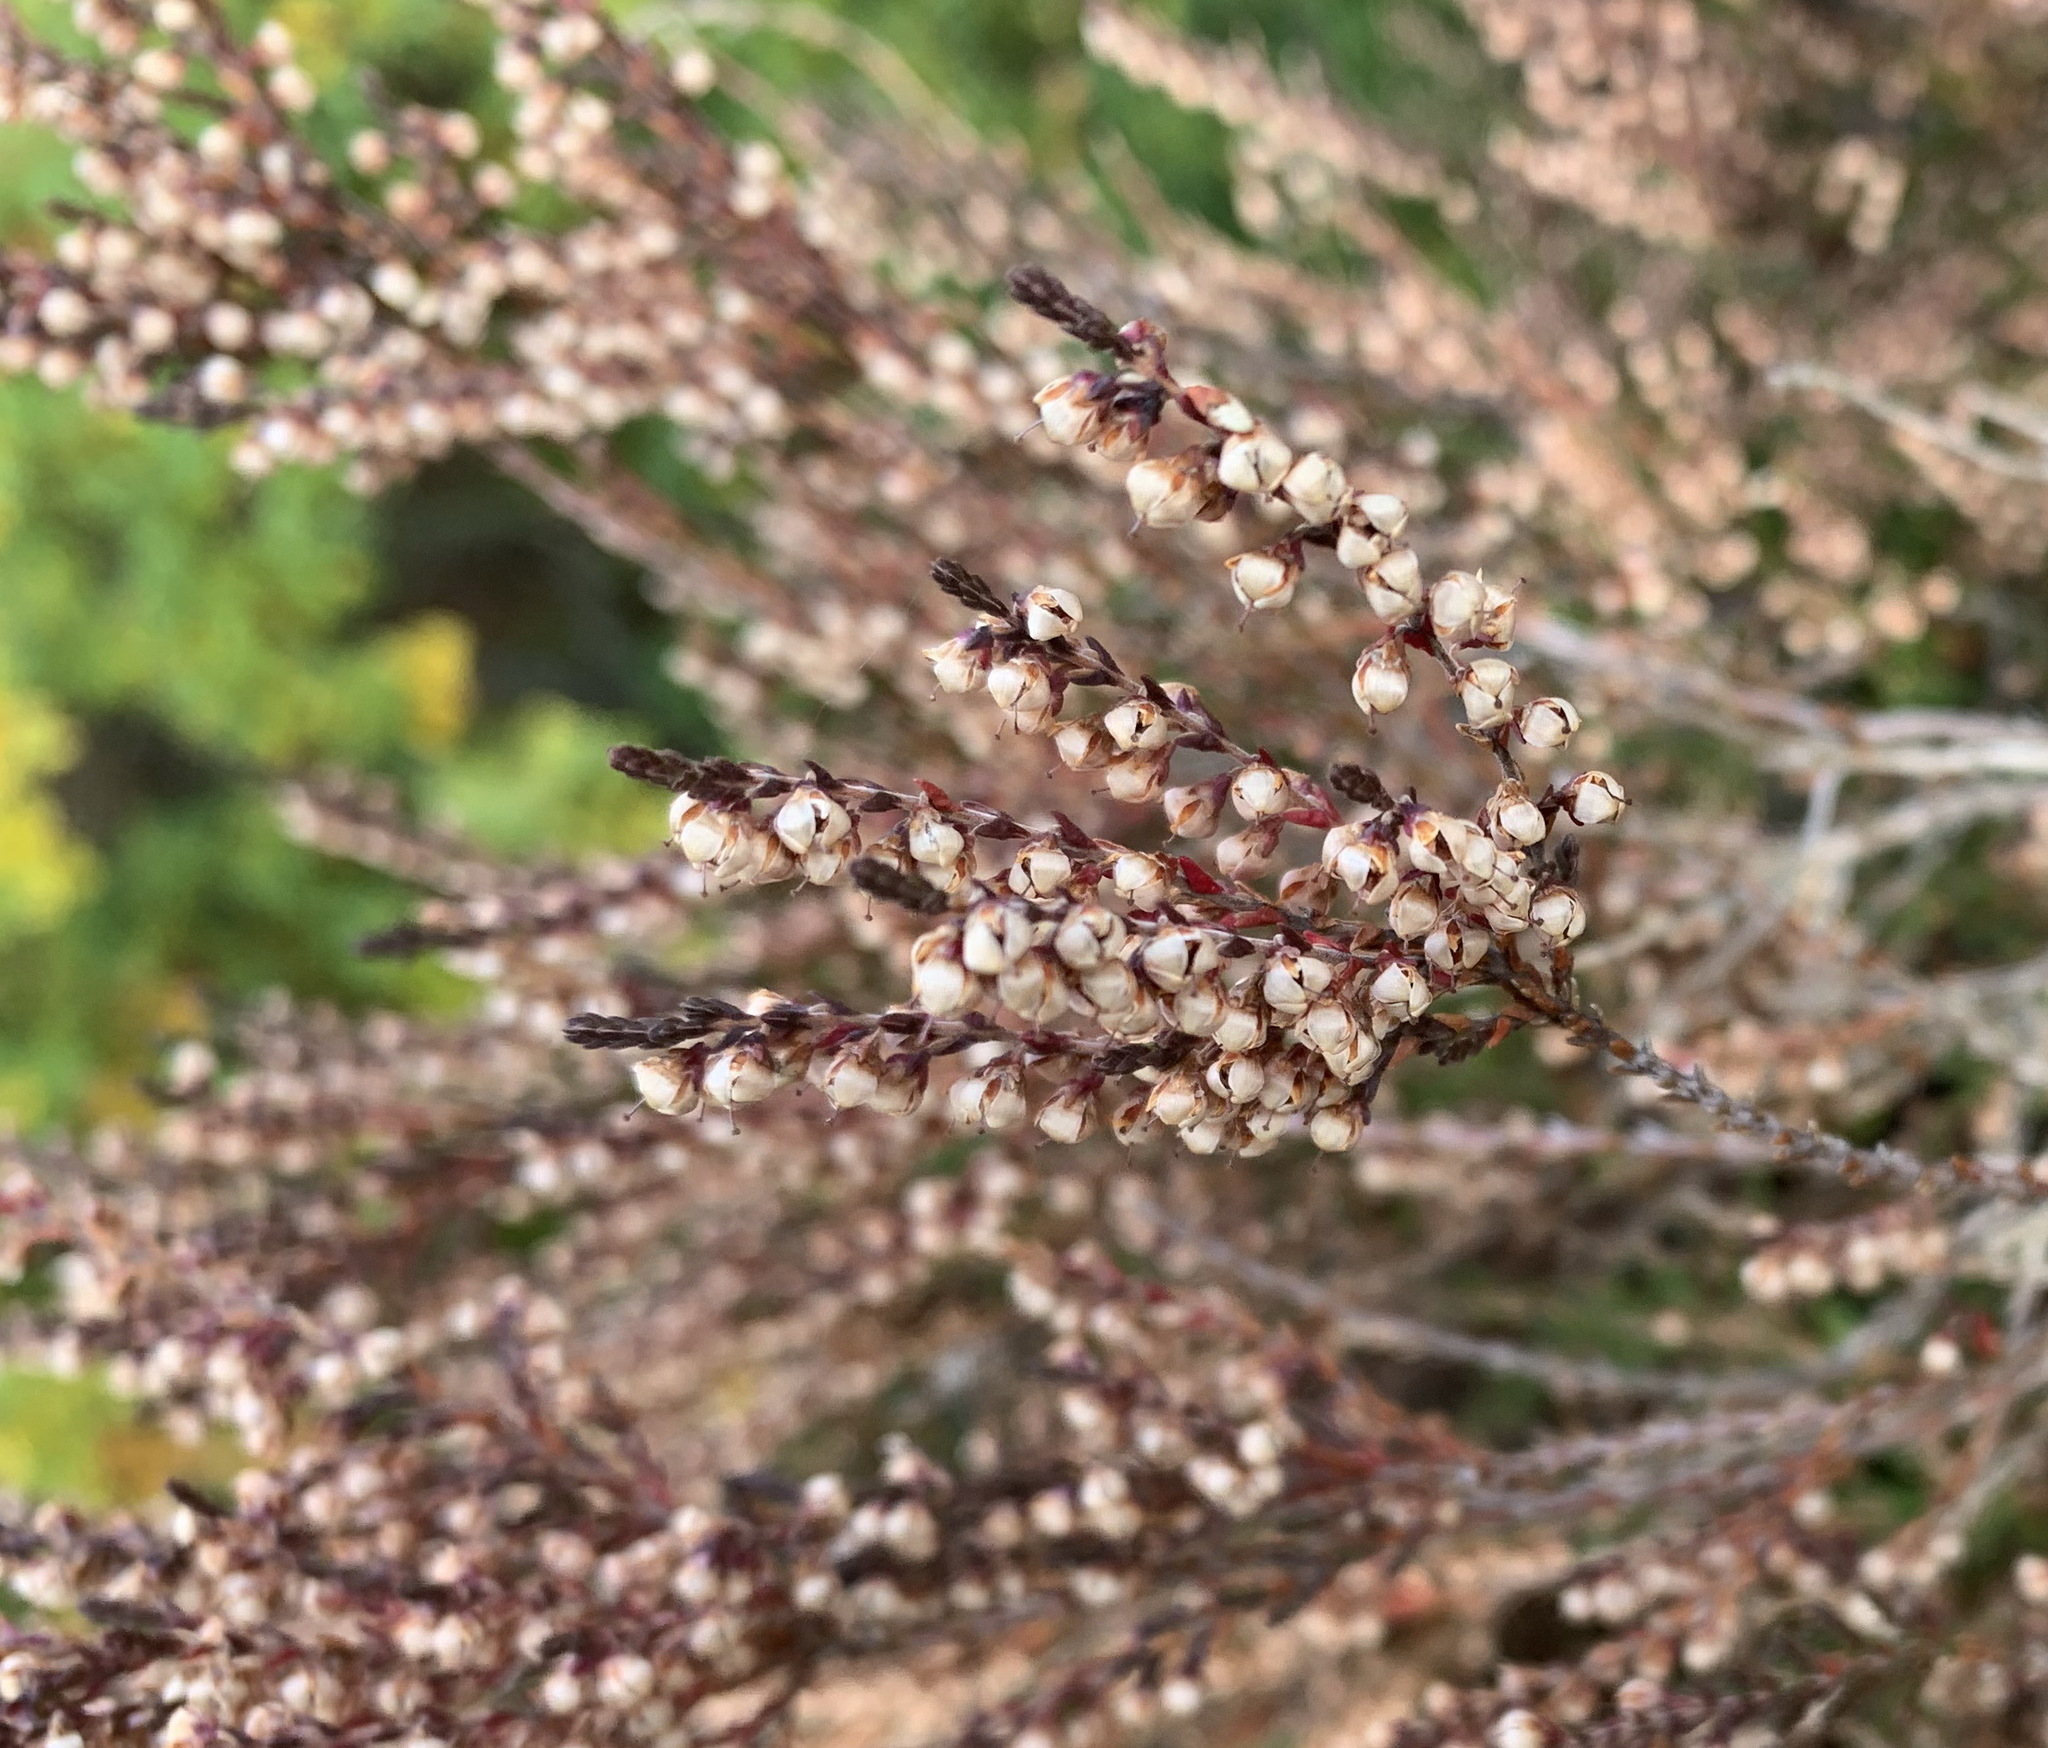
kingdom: Plantae
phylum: Tracheophyta
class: Magnoliopsida
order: Ericales
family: Ericaceae
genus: Calluna
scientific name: Calluna vulgaris
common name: Heather
